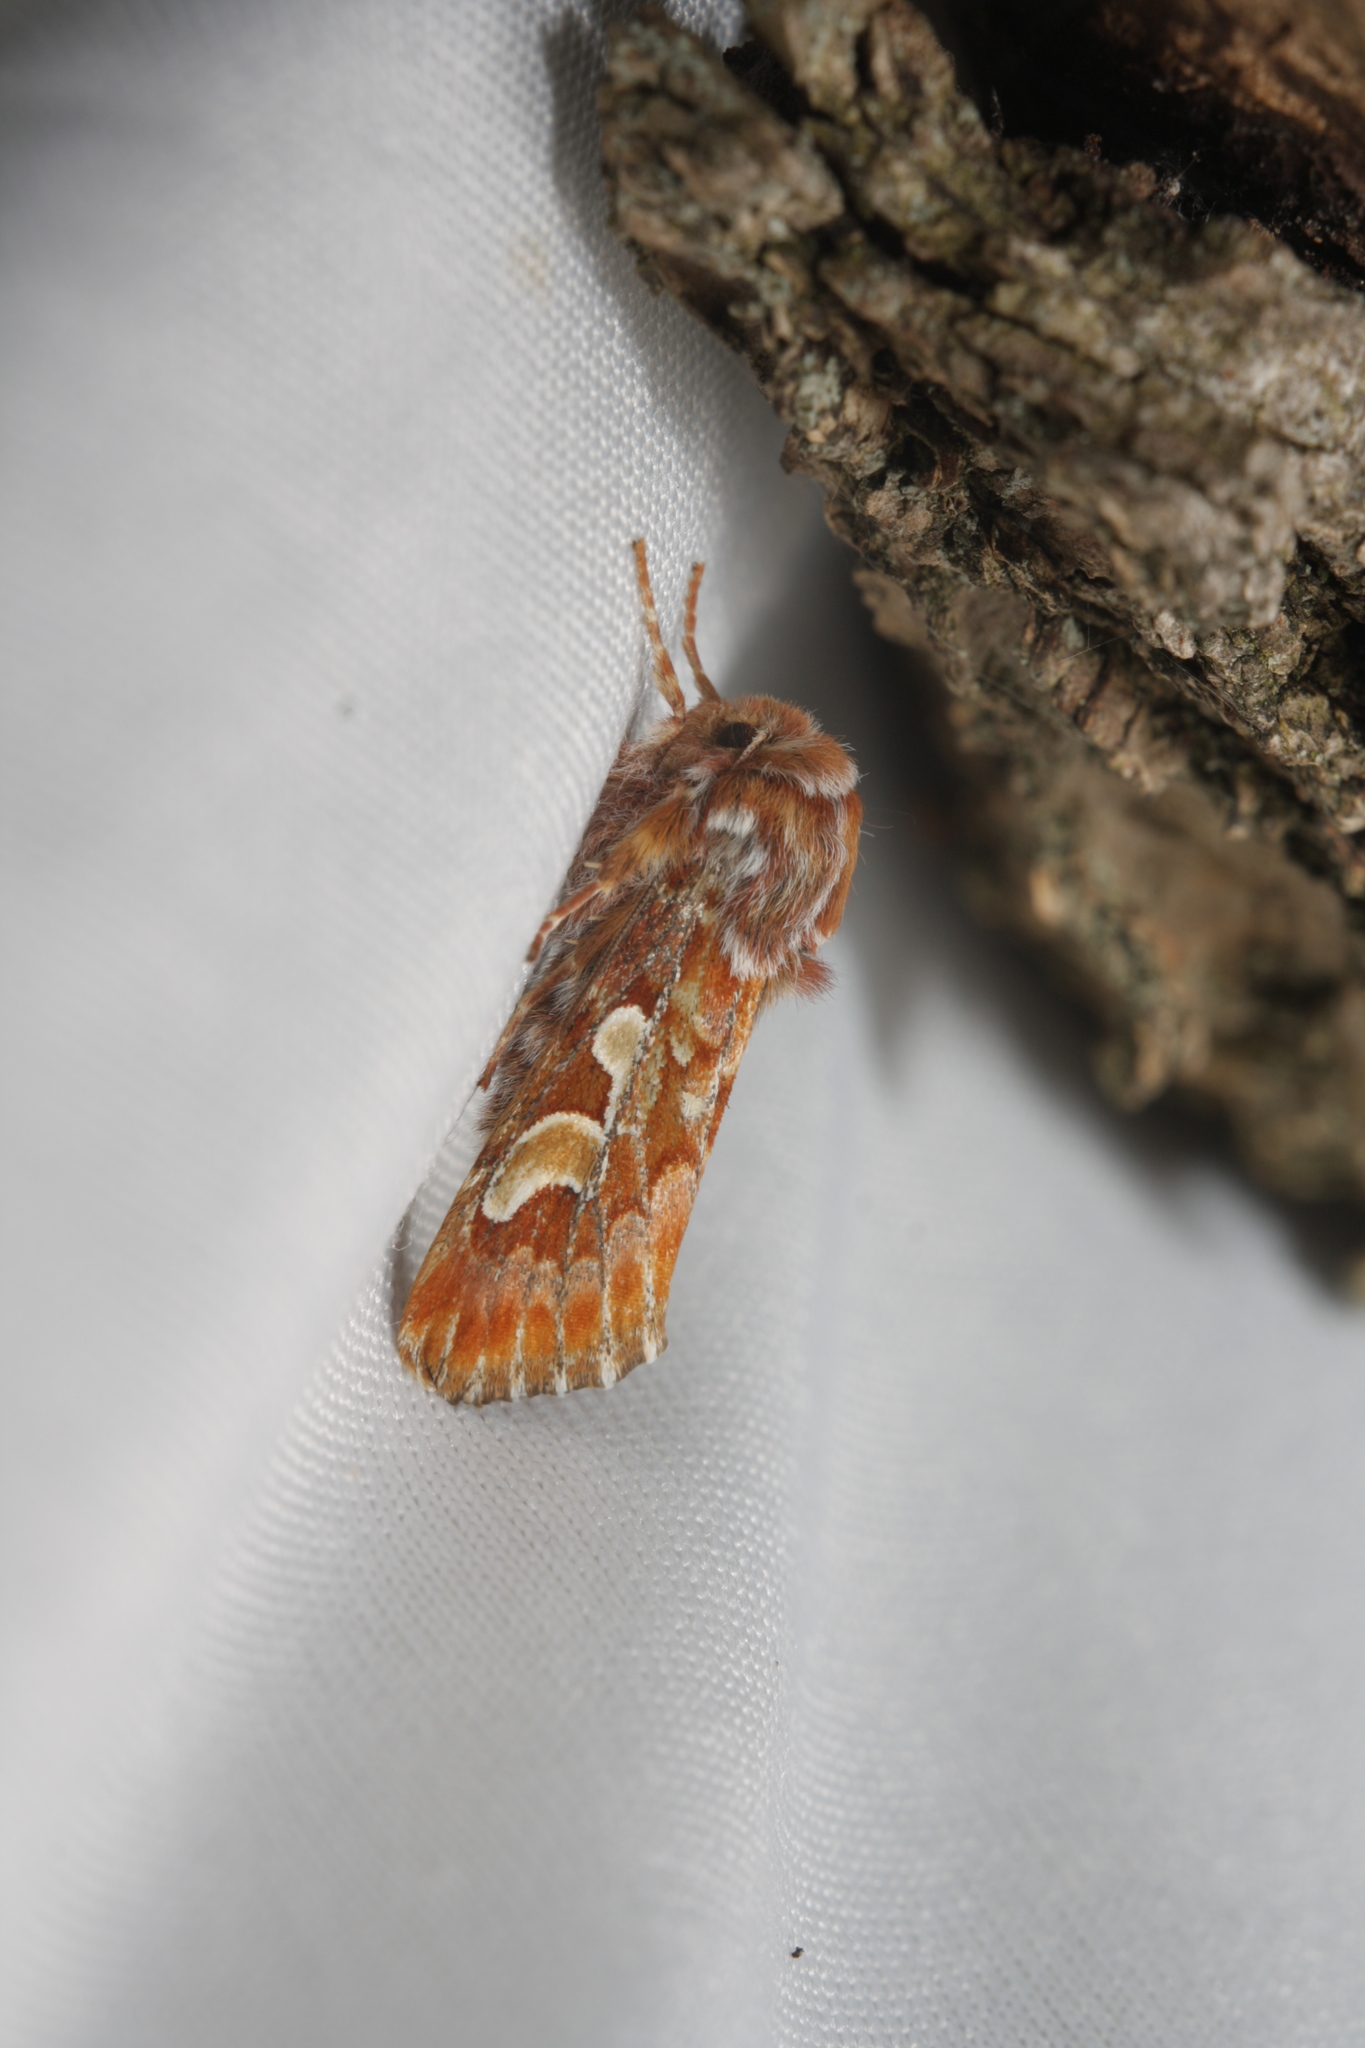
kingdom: Animalia
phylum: Arthropoda
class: Insecta
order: Lepidoptera
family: Noctuidae
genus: Panolis
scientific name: Panolis flammea
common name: Pine beauty
